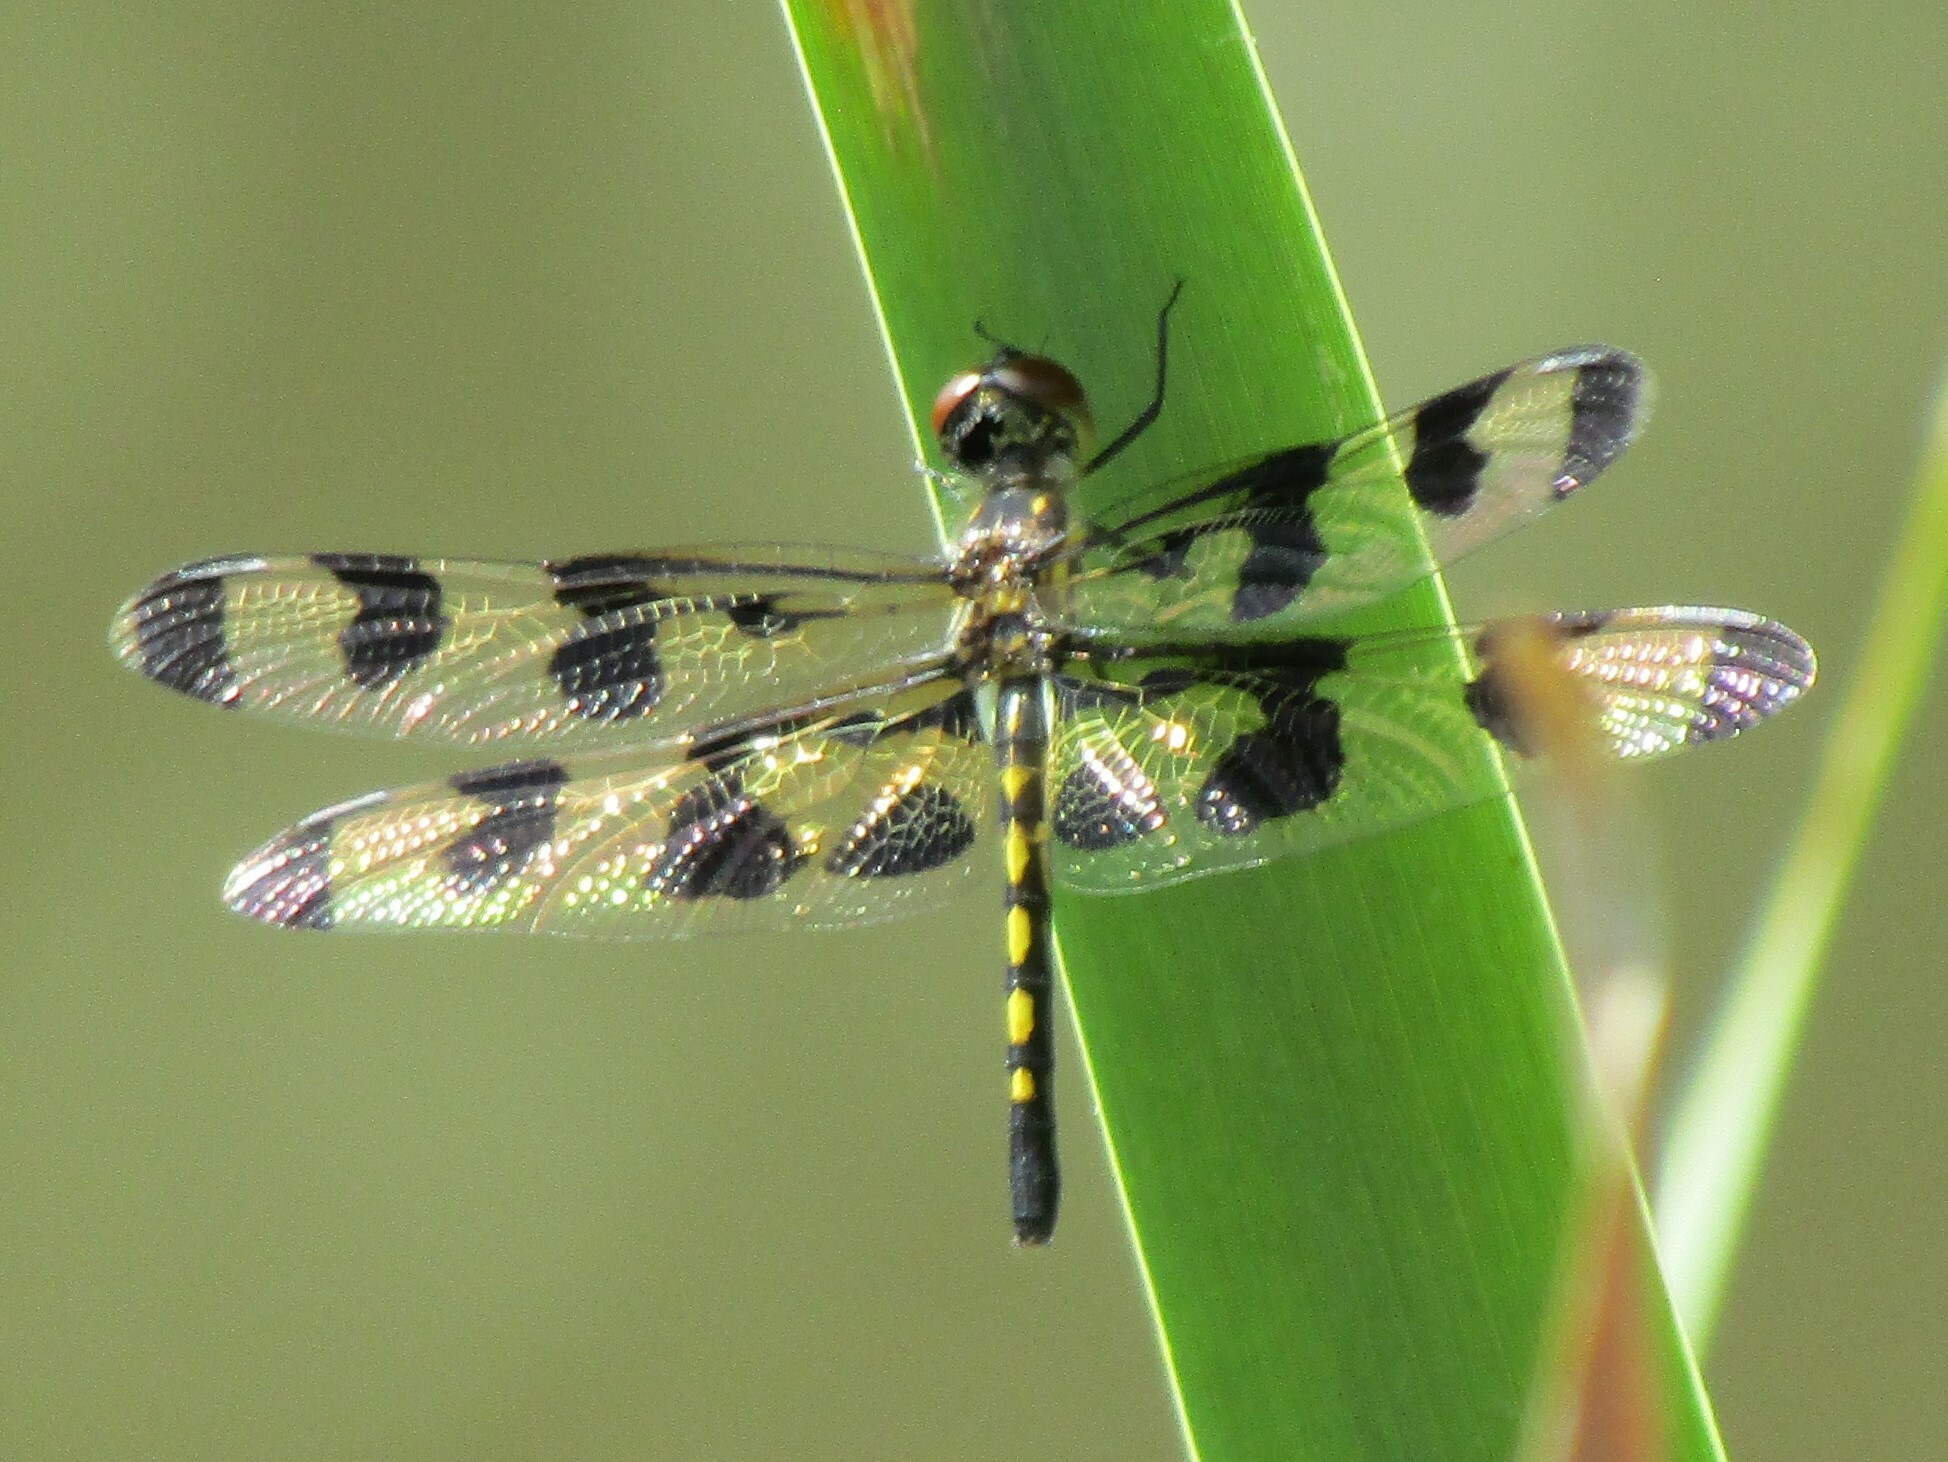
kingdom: Animalia
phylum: Arthropoda
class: Insecta
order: Odonata
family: Libellulidae
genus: Celithemis
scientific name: Celithemis fasciata
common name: Banded pennant
